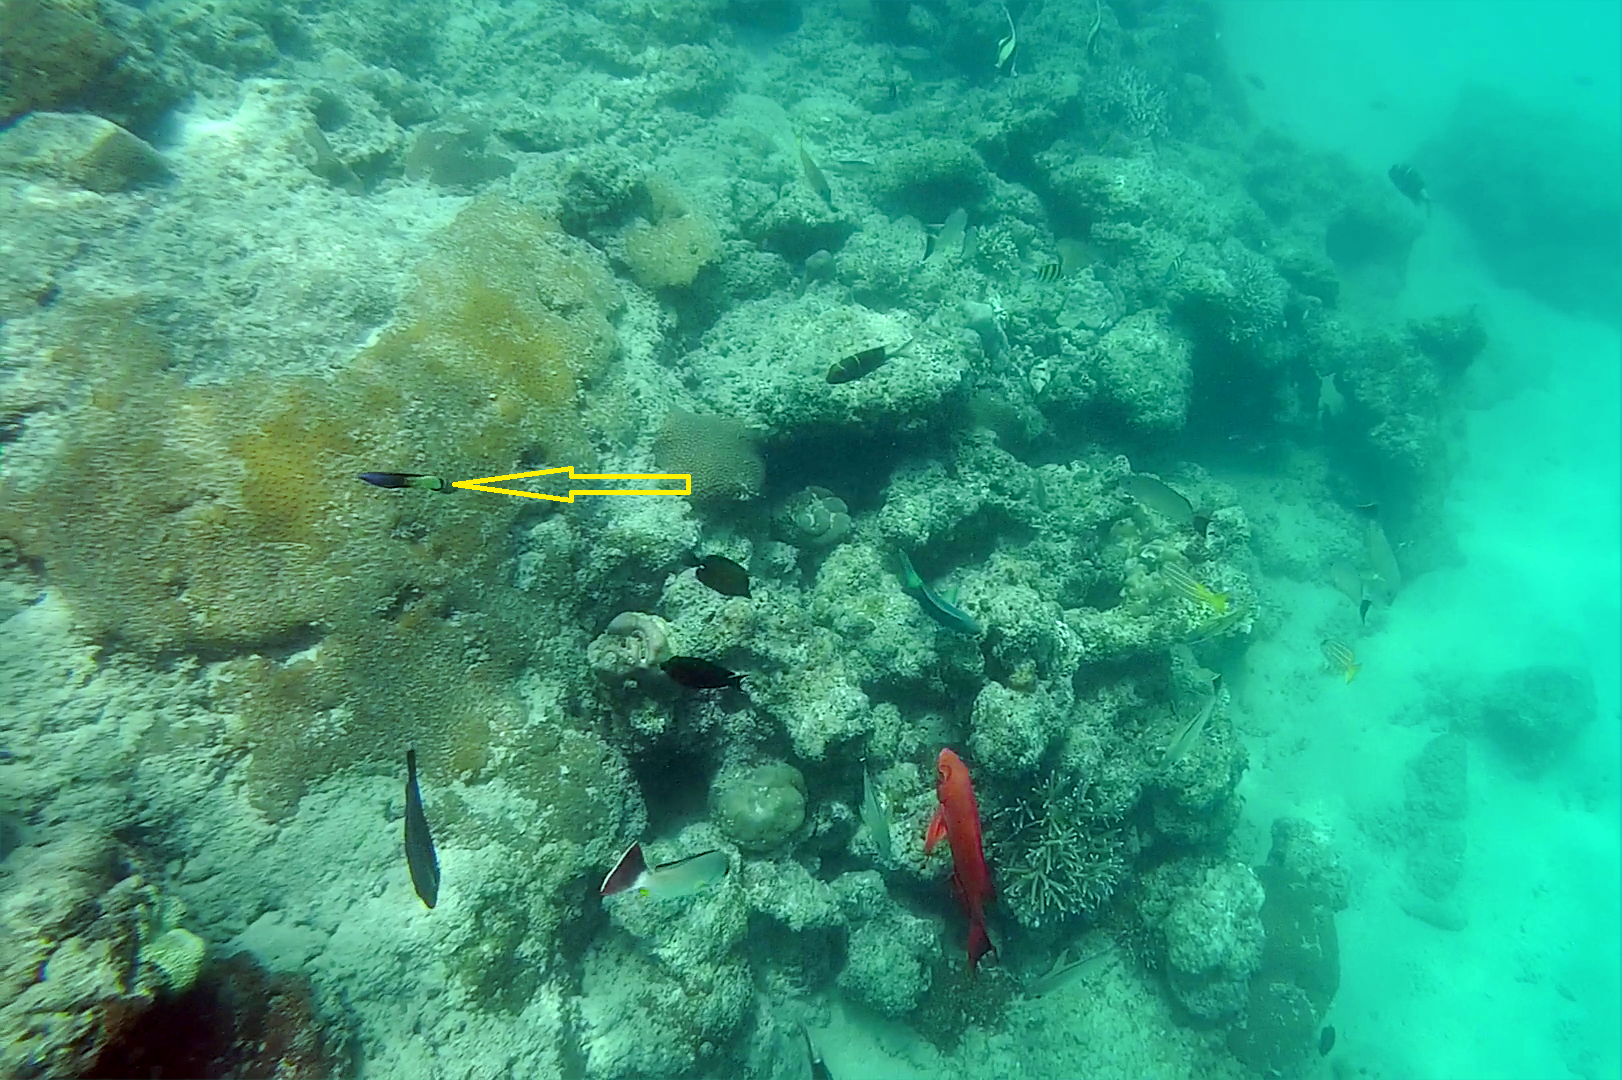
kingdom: Animalia
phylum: Chordata
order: Perciformes
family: Labridae
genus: Labroides
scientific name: Labroides bicolor
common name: Bicolor cleaner wrasse
